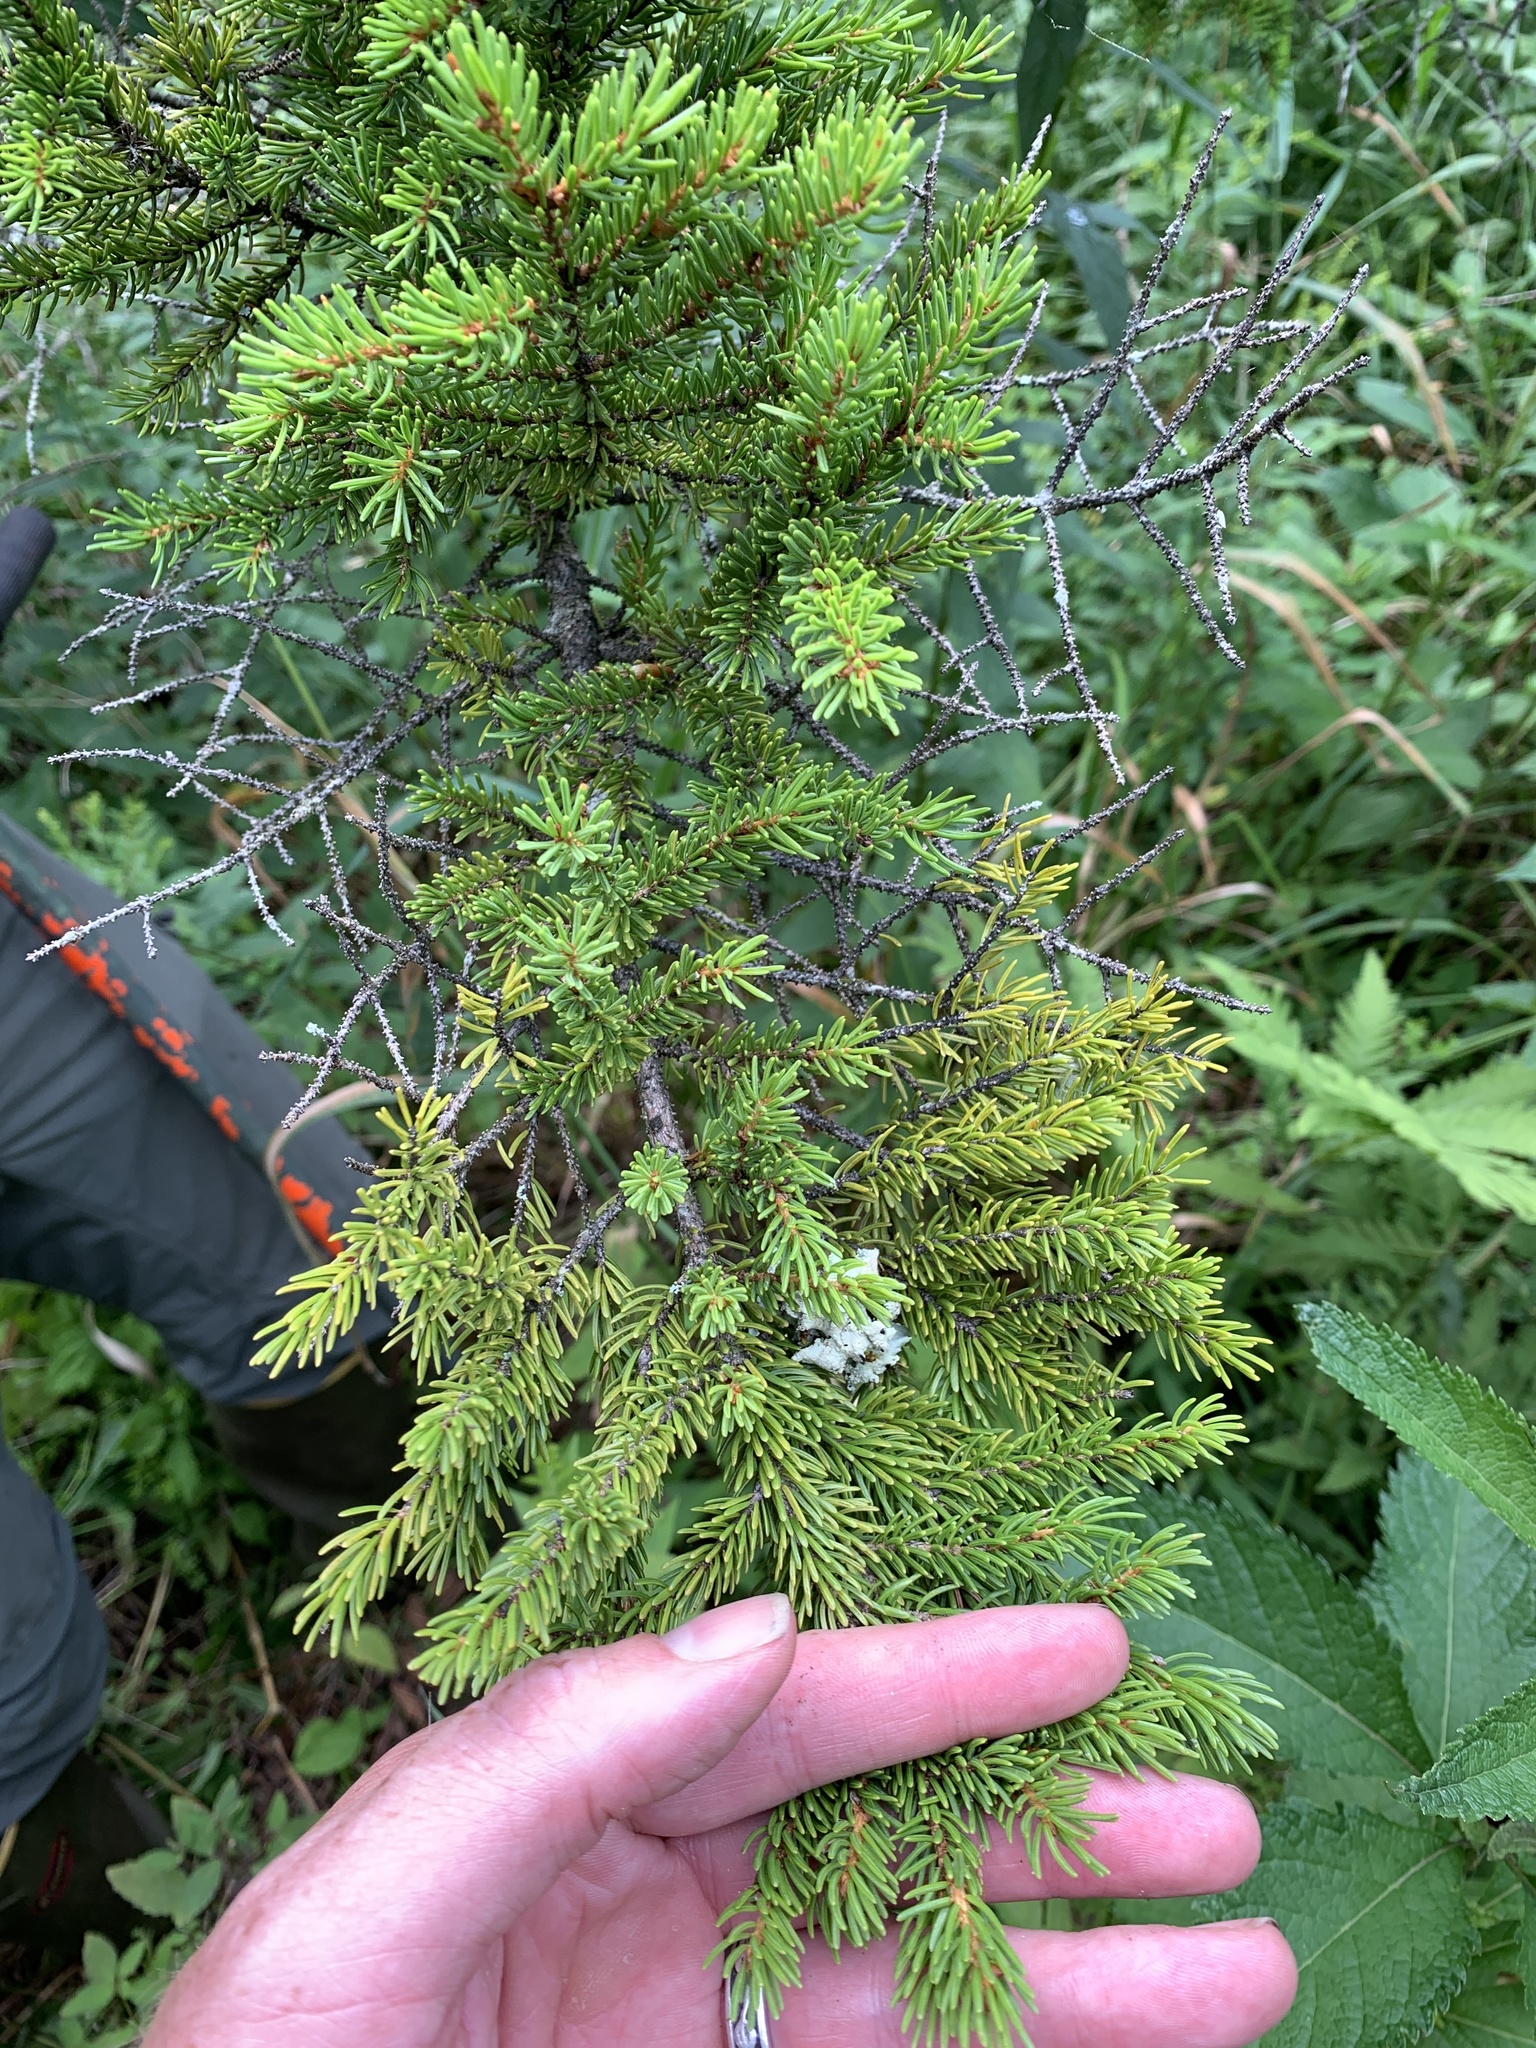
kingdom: Plantae
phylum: Tracheophyta
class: Pinopsida
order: Pinales
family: Pinaceae
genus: Picea
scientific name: Picea rubens
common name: Red spruce
